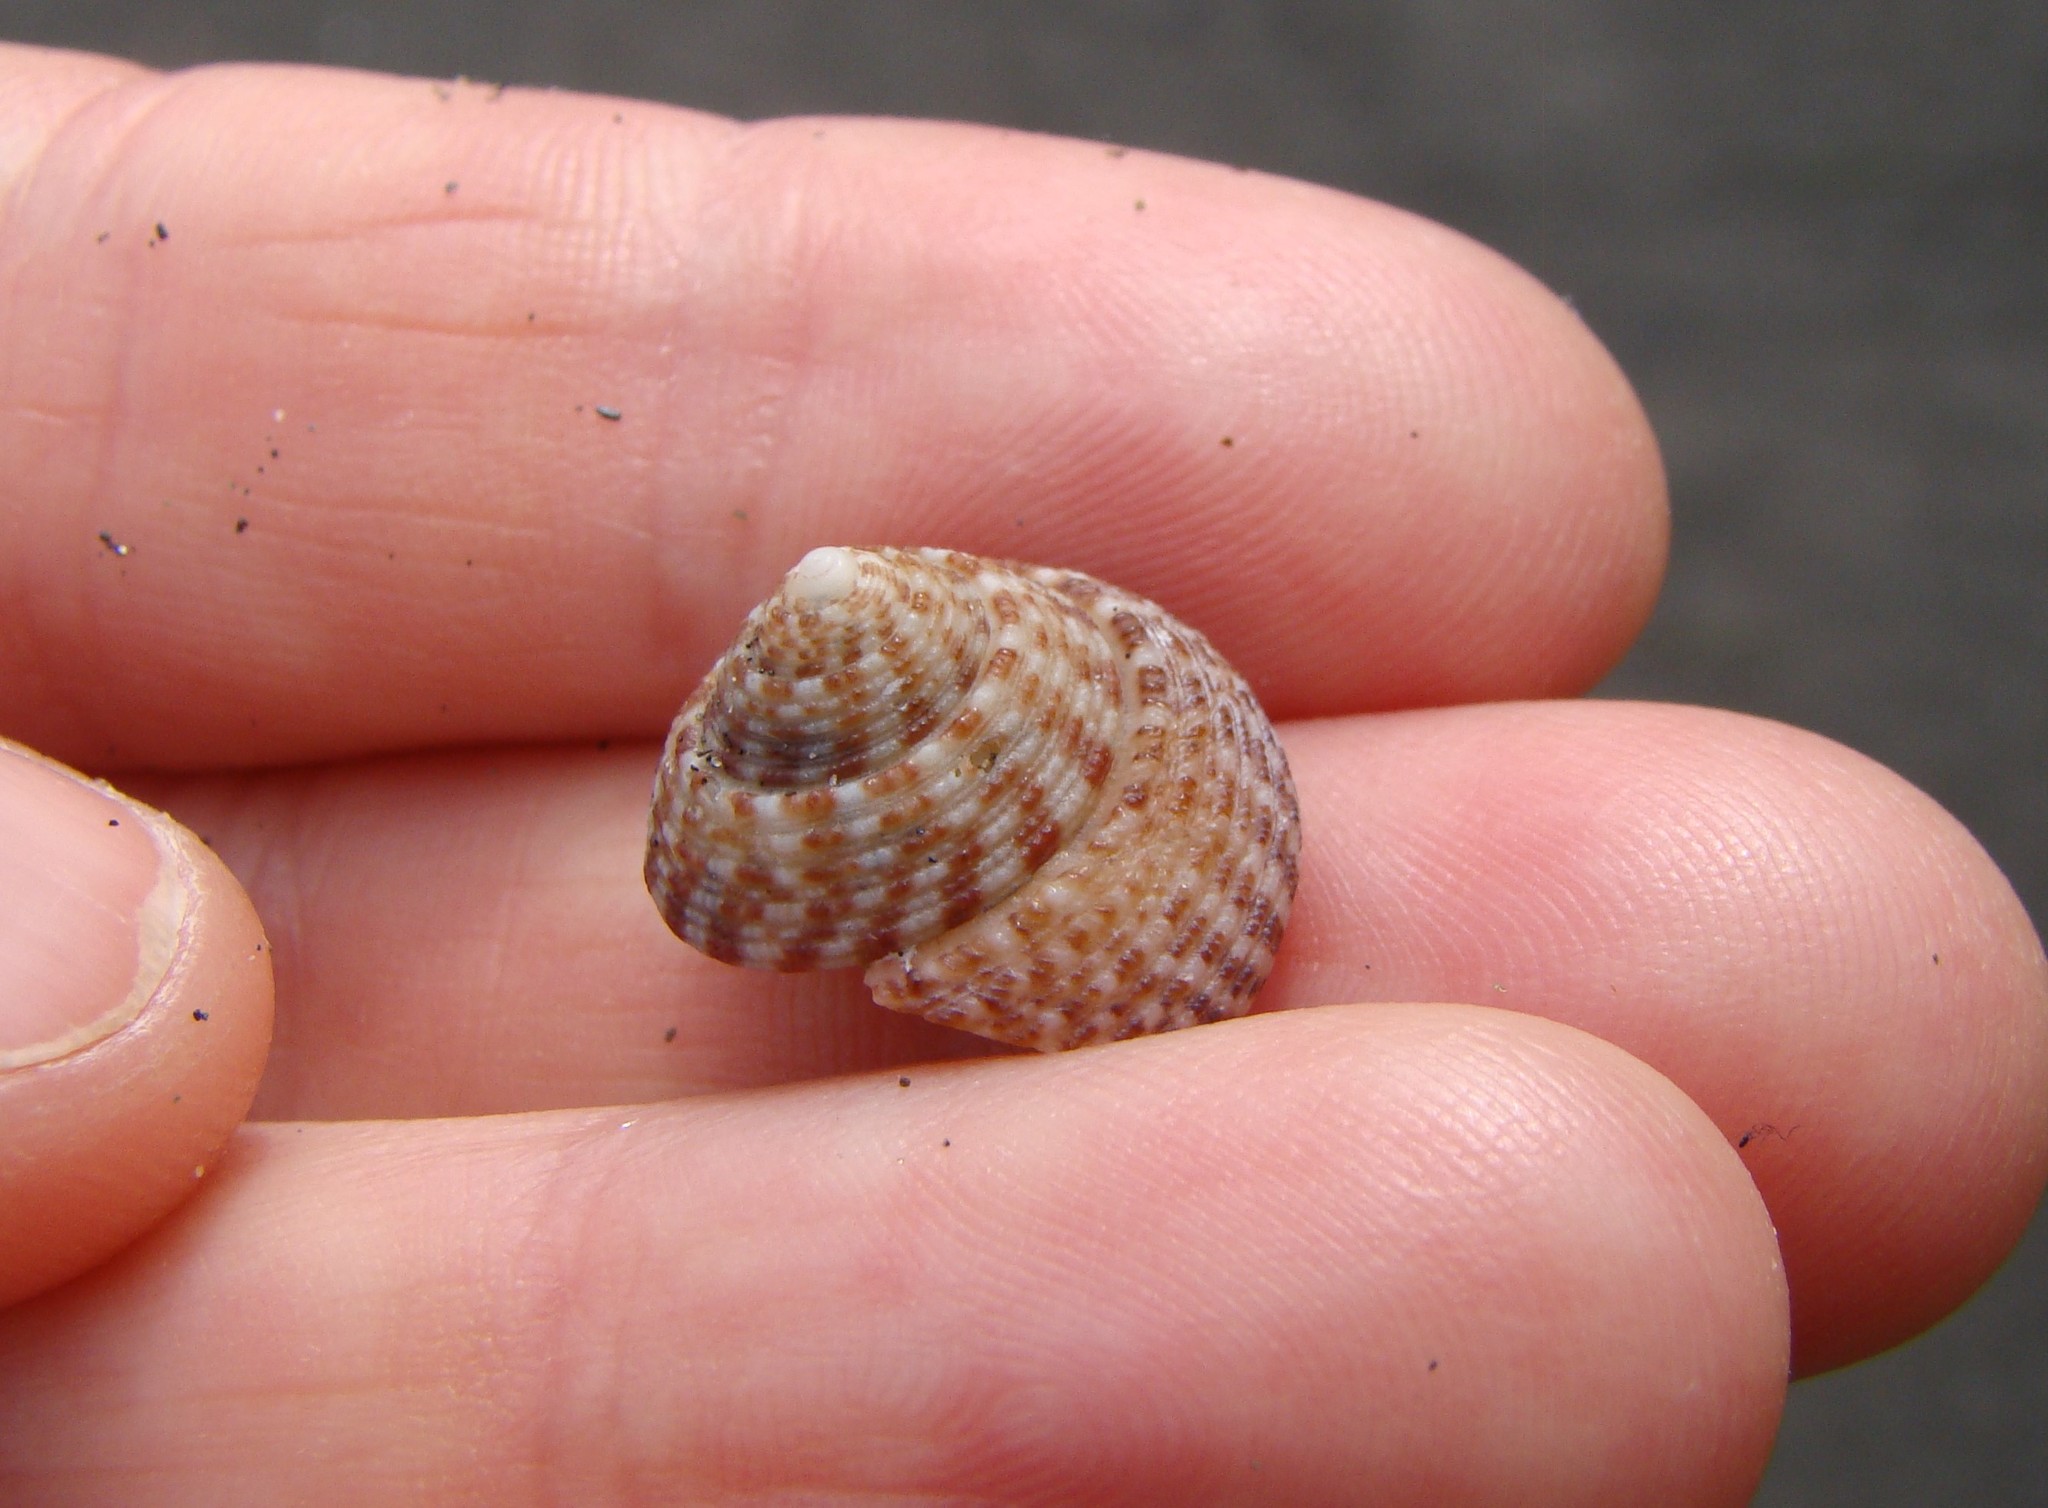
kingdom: Animalia
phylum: Mollusca
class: Gastropoda
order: Trochida
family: Trochidae
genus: Coelotrochus
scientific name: Coelotrochus tiaratus
